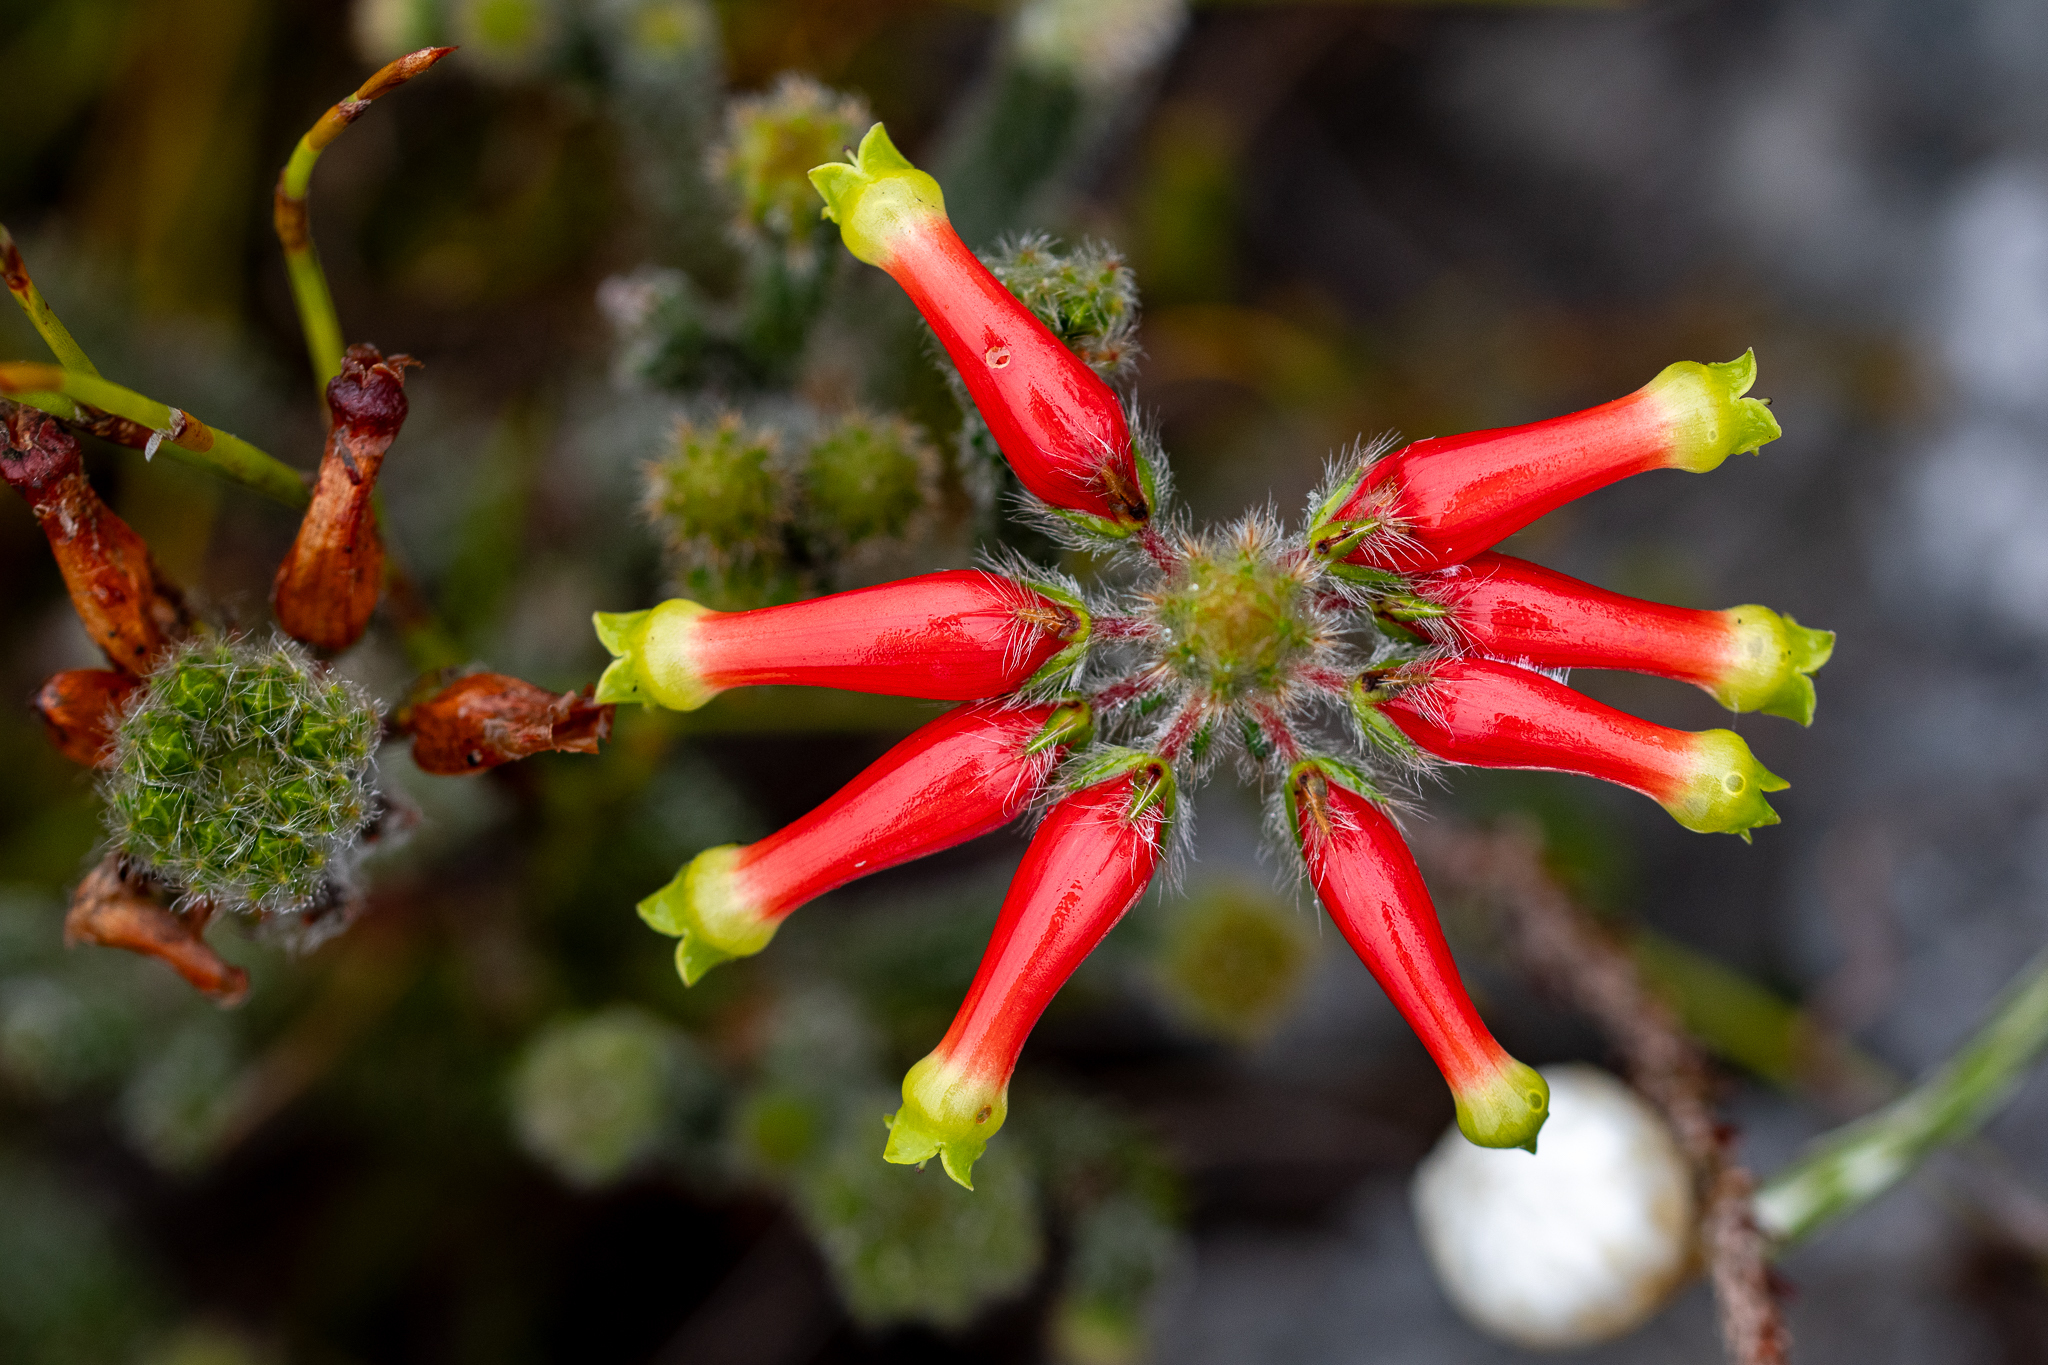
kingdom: Plantae
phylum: Tracheophyta
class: Magnoliopsida
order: Ericales
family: Ericaceae
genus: Erica
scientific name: Erica massonii
